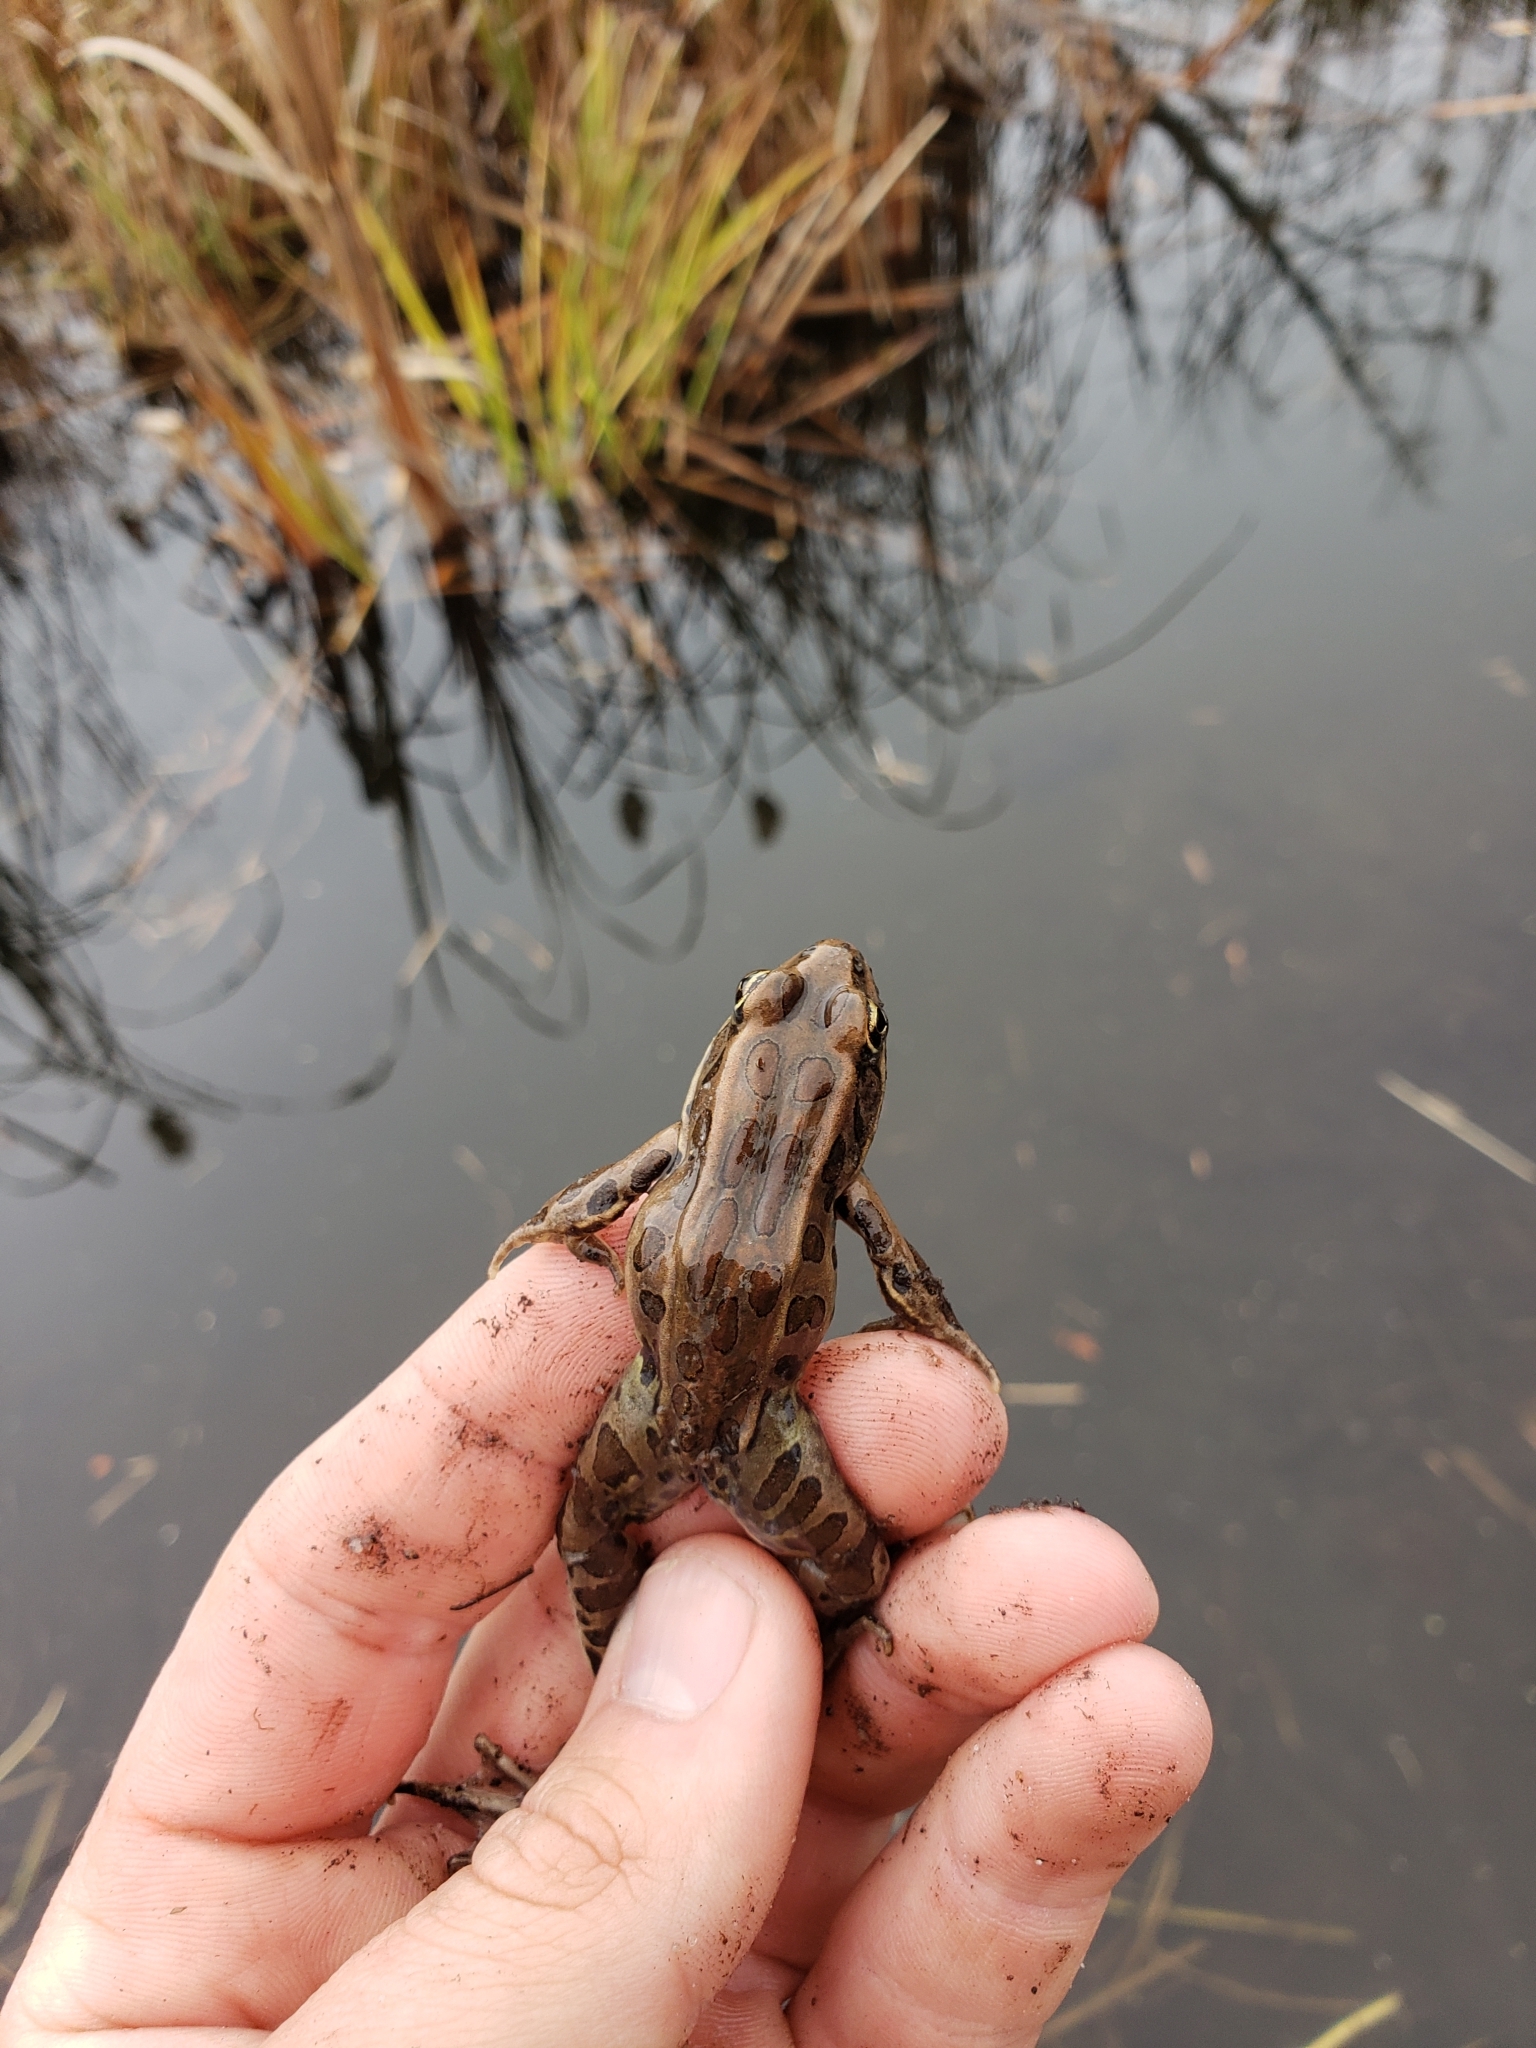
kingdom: Animalia
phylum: Chordata
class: Amphibia
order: Anura
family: Ranidae
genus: Lithobates
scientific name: Lithobates pipiens
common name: Northern leopard frog
